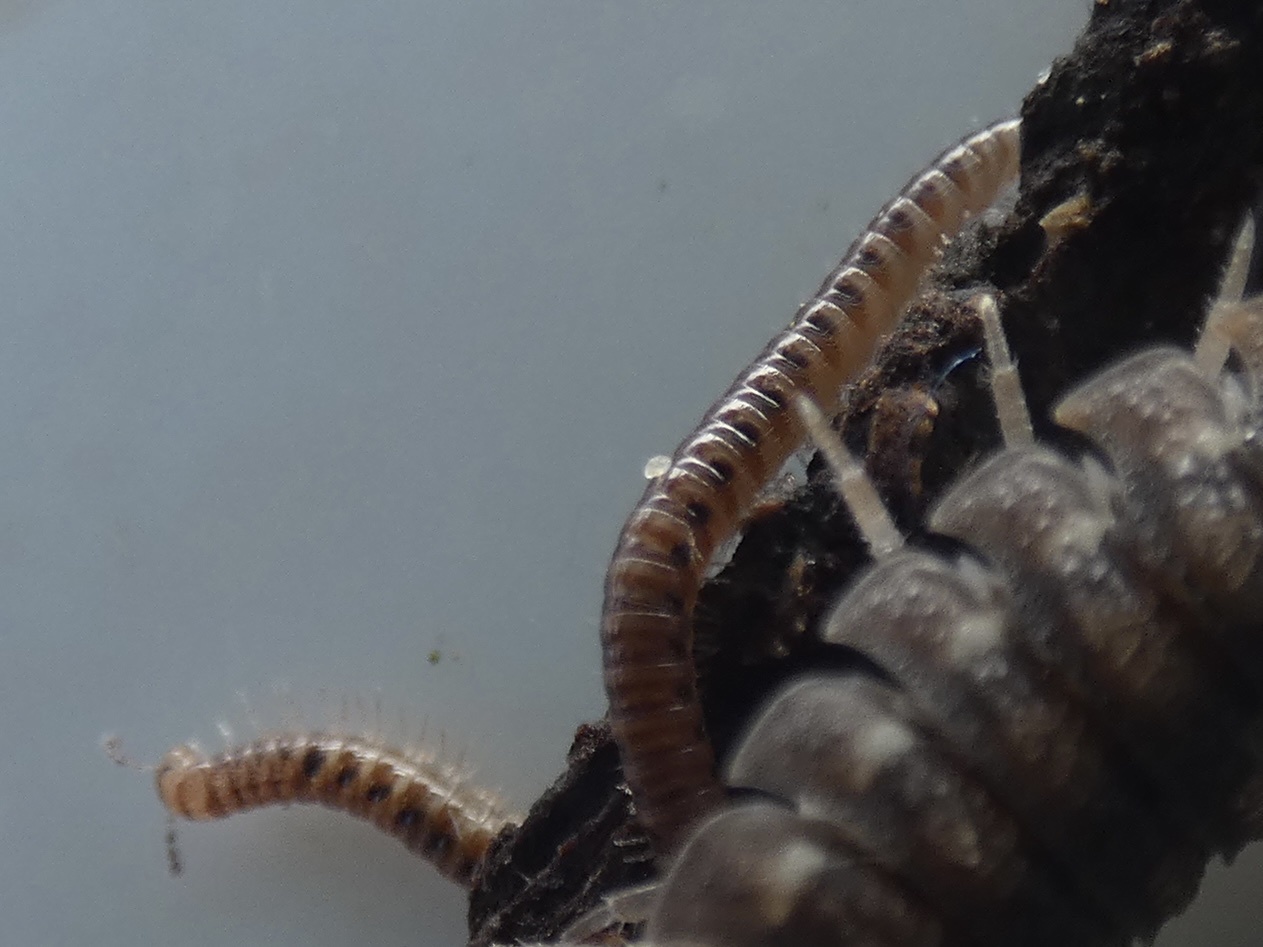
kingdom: Animalia
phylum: Arthropoda
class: Diplopoda
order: Julida
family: Blaniulidae
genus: Proteroiulus
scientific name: Proteroiulus fuscus
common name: Millipede
